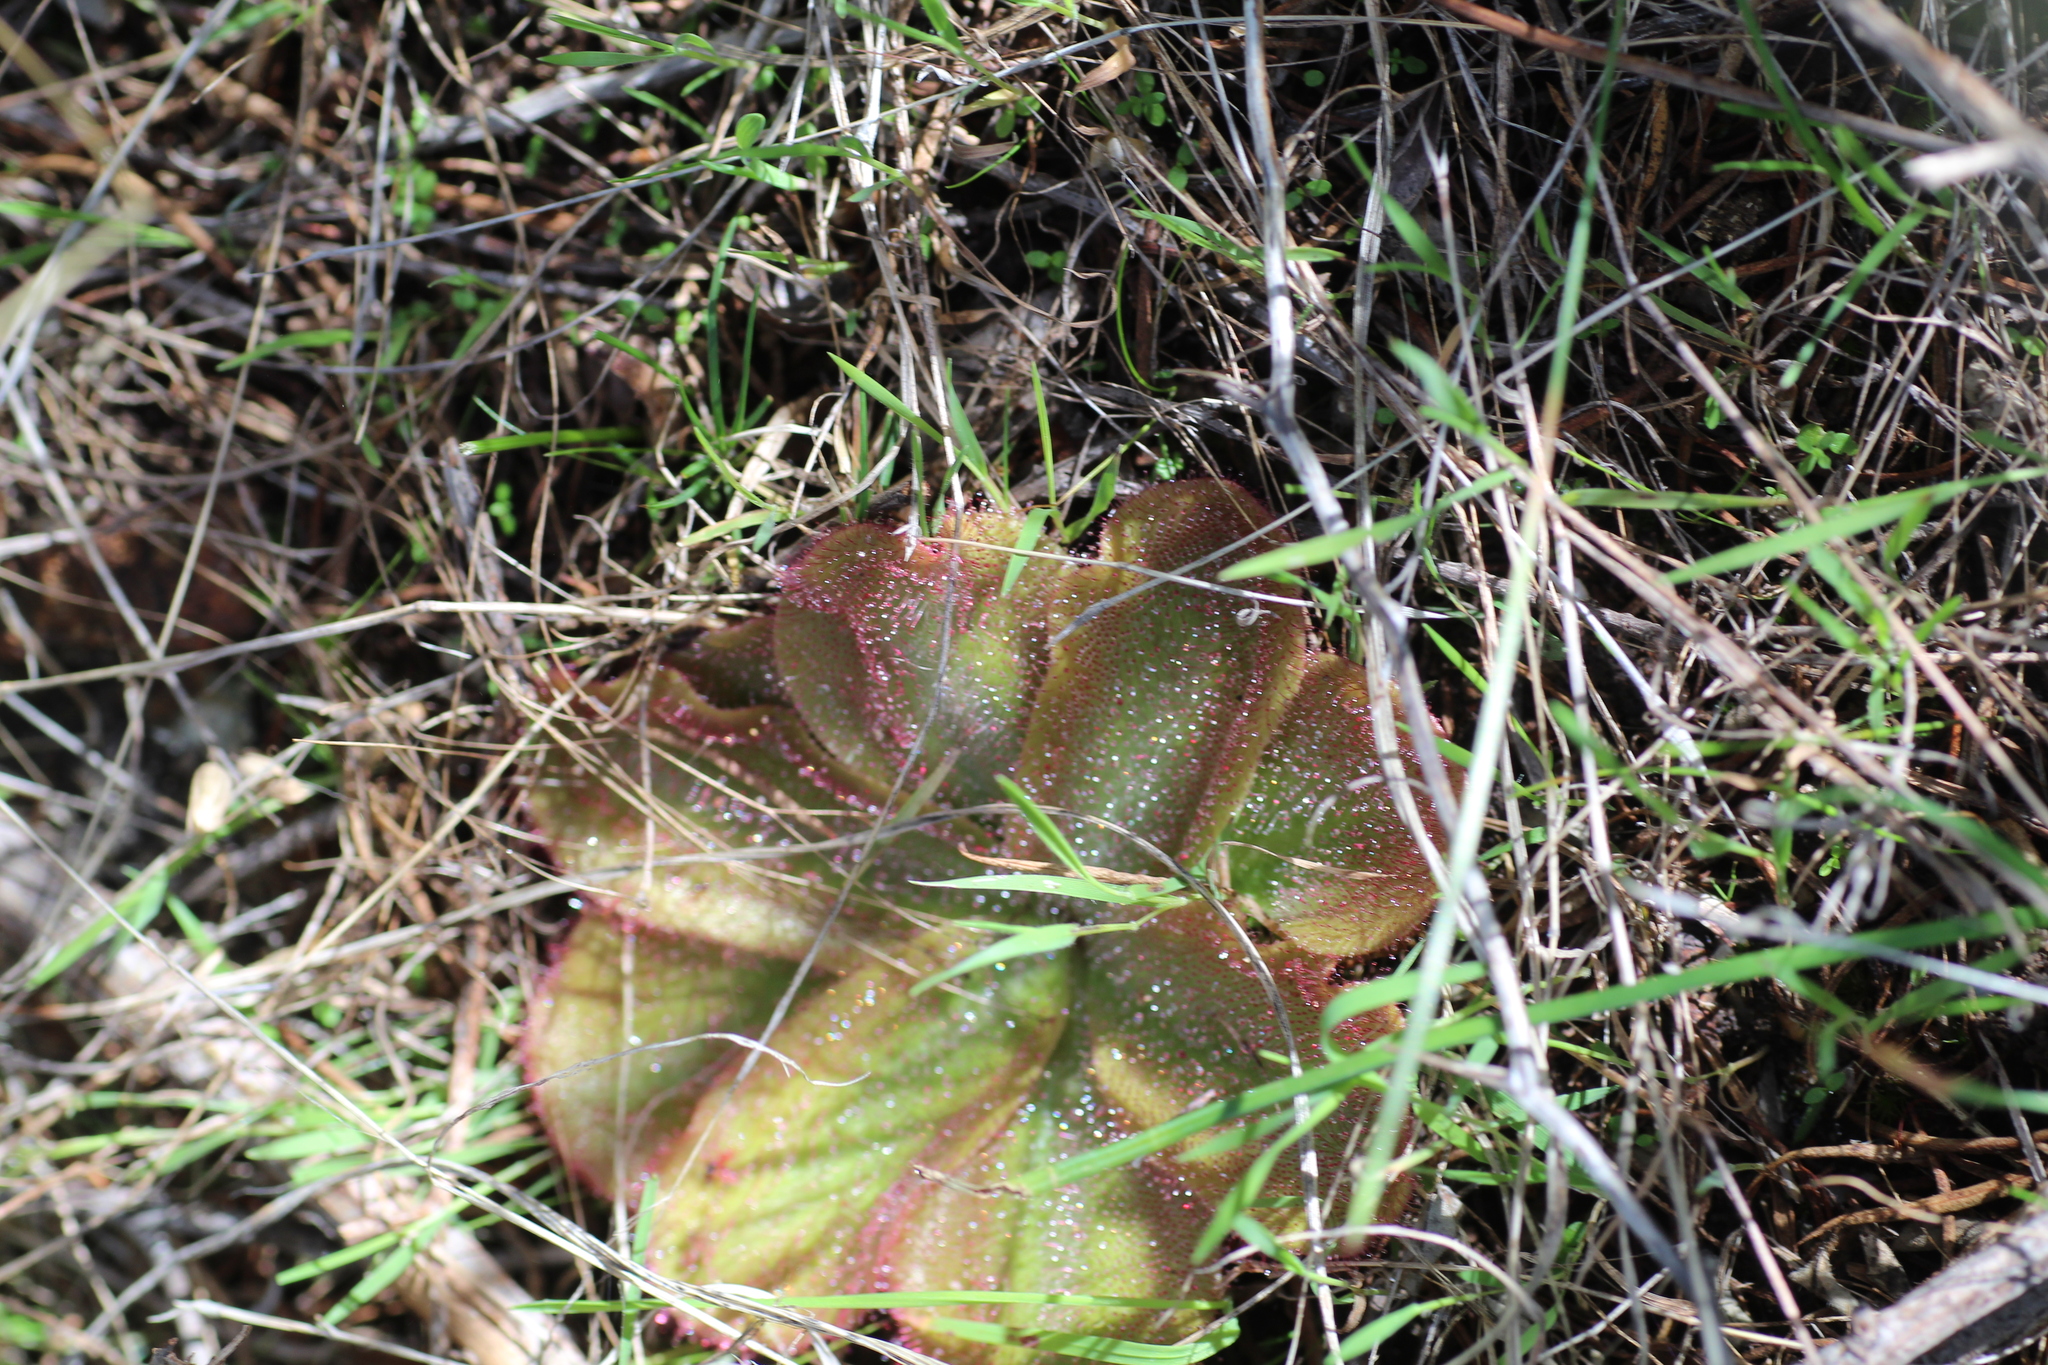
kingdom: Plantae
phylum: Tracheophyta
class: Magnoliopsida
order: Caryophyllales
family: Droseraceae
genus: Drosera
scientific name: Drosera erythrorhiza
